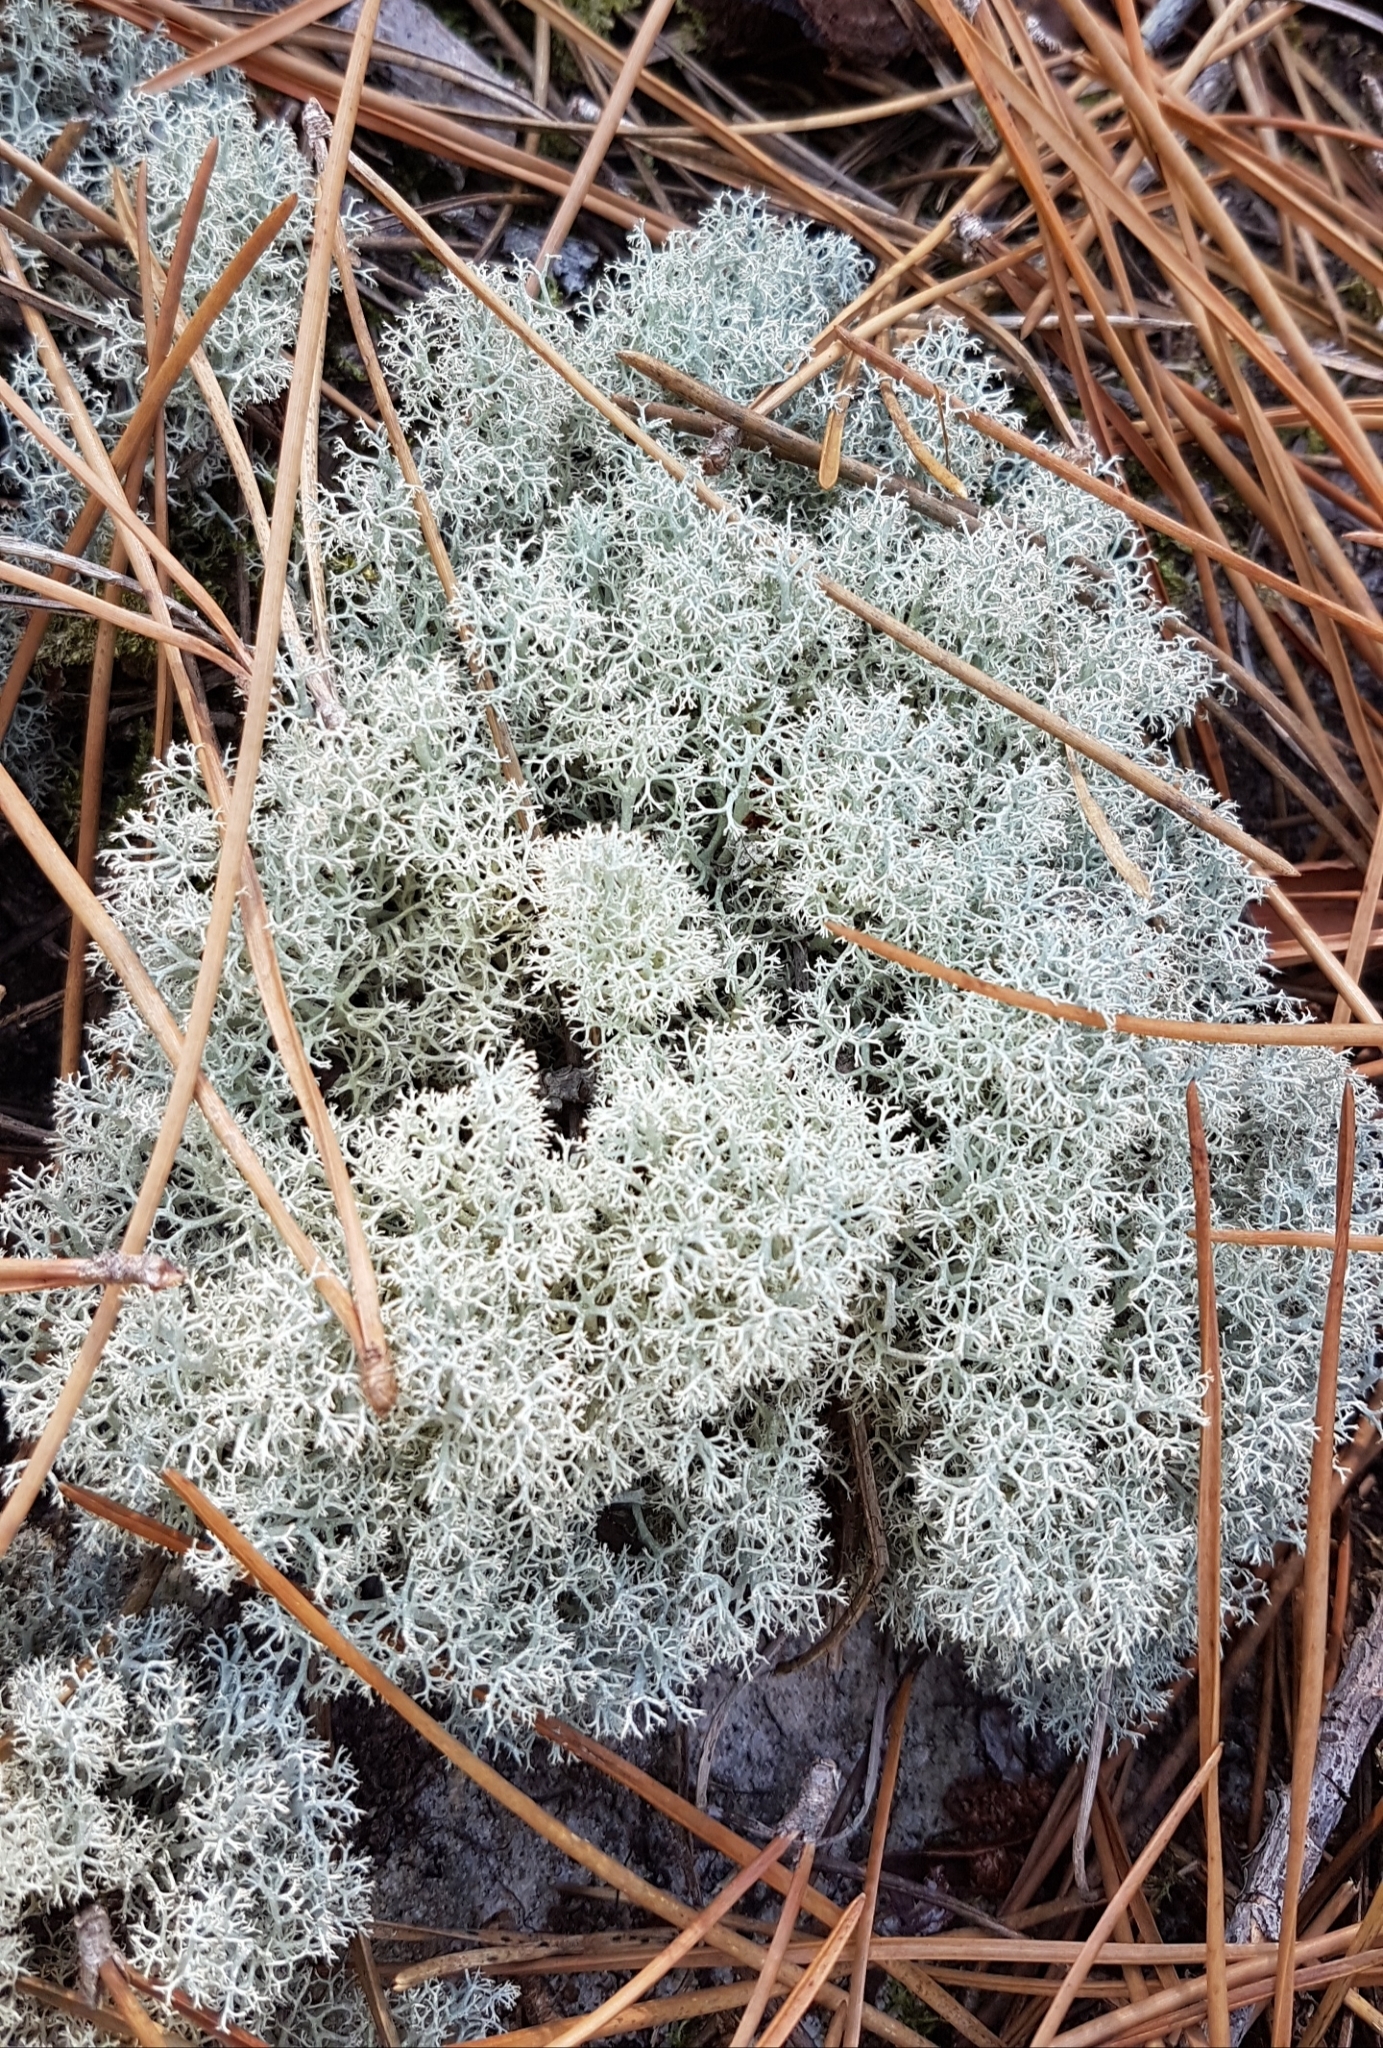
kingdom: Fungi
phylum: Ascomycota
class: Lecanoromycetes
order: Lecanorales
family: Cladoniaceae
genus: Cladonia
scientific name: Cladonia
